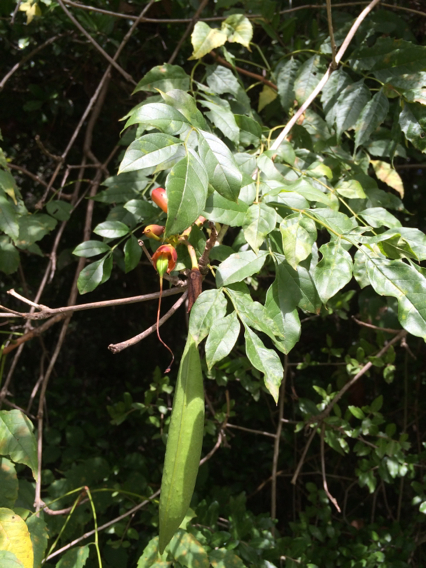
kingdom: Plantae
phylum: Tracheophyta
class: Magnoliopsida
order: Lamiales
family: Bignoniaceae
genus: Campsis
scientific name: Campsis radicans
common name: Trumpet-creeper
